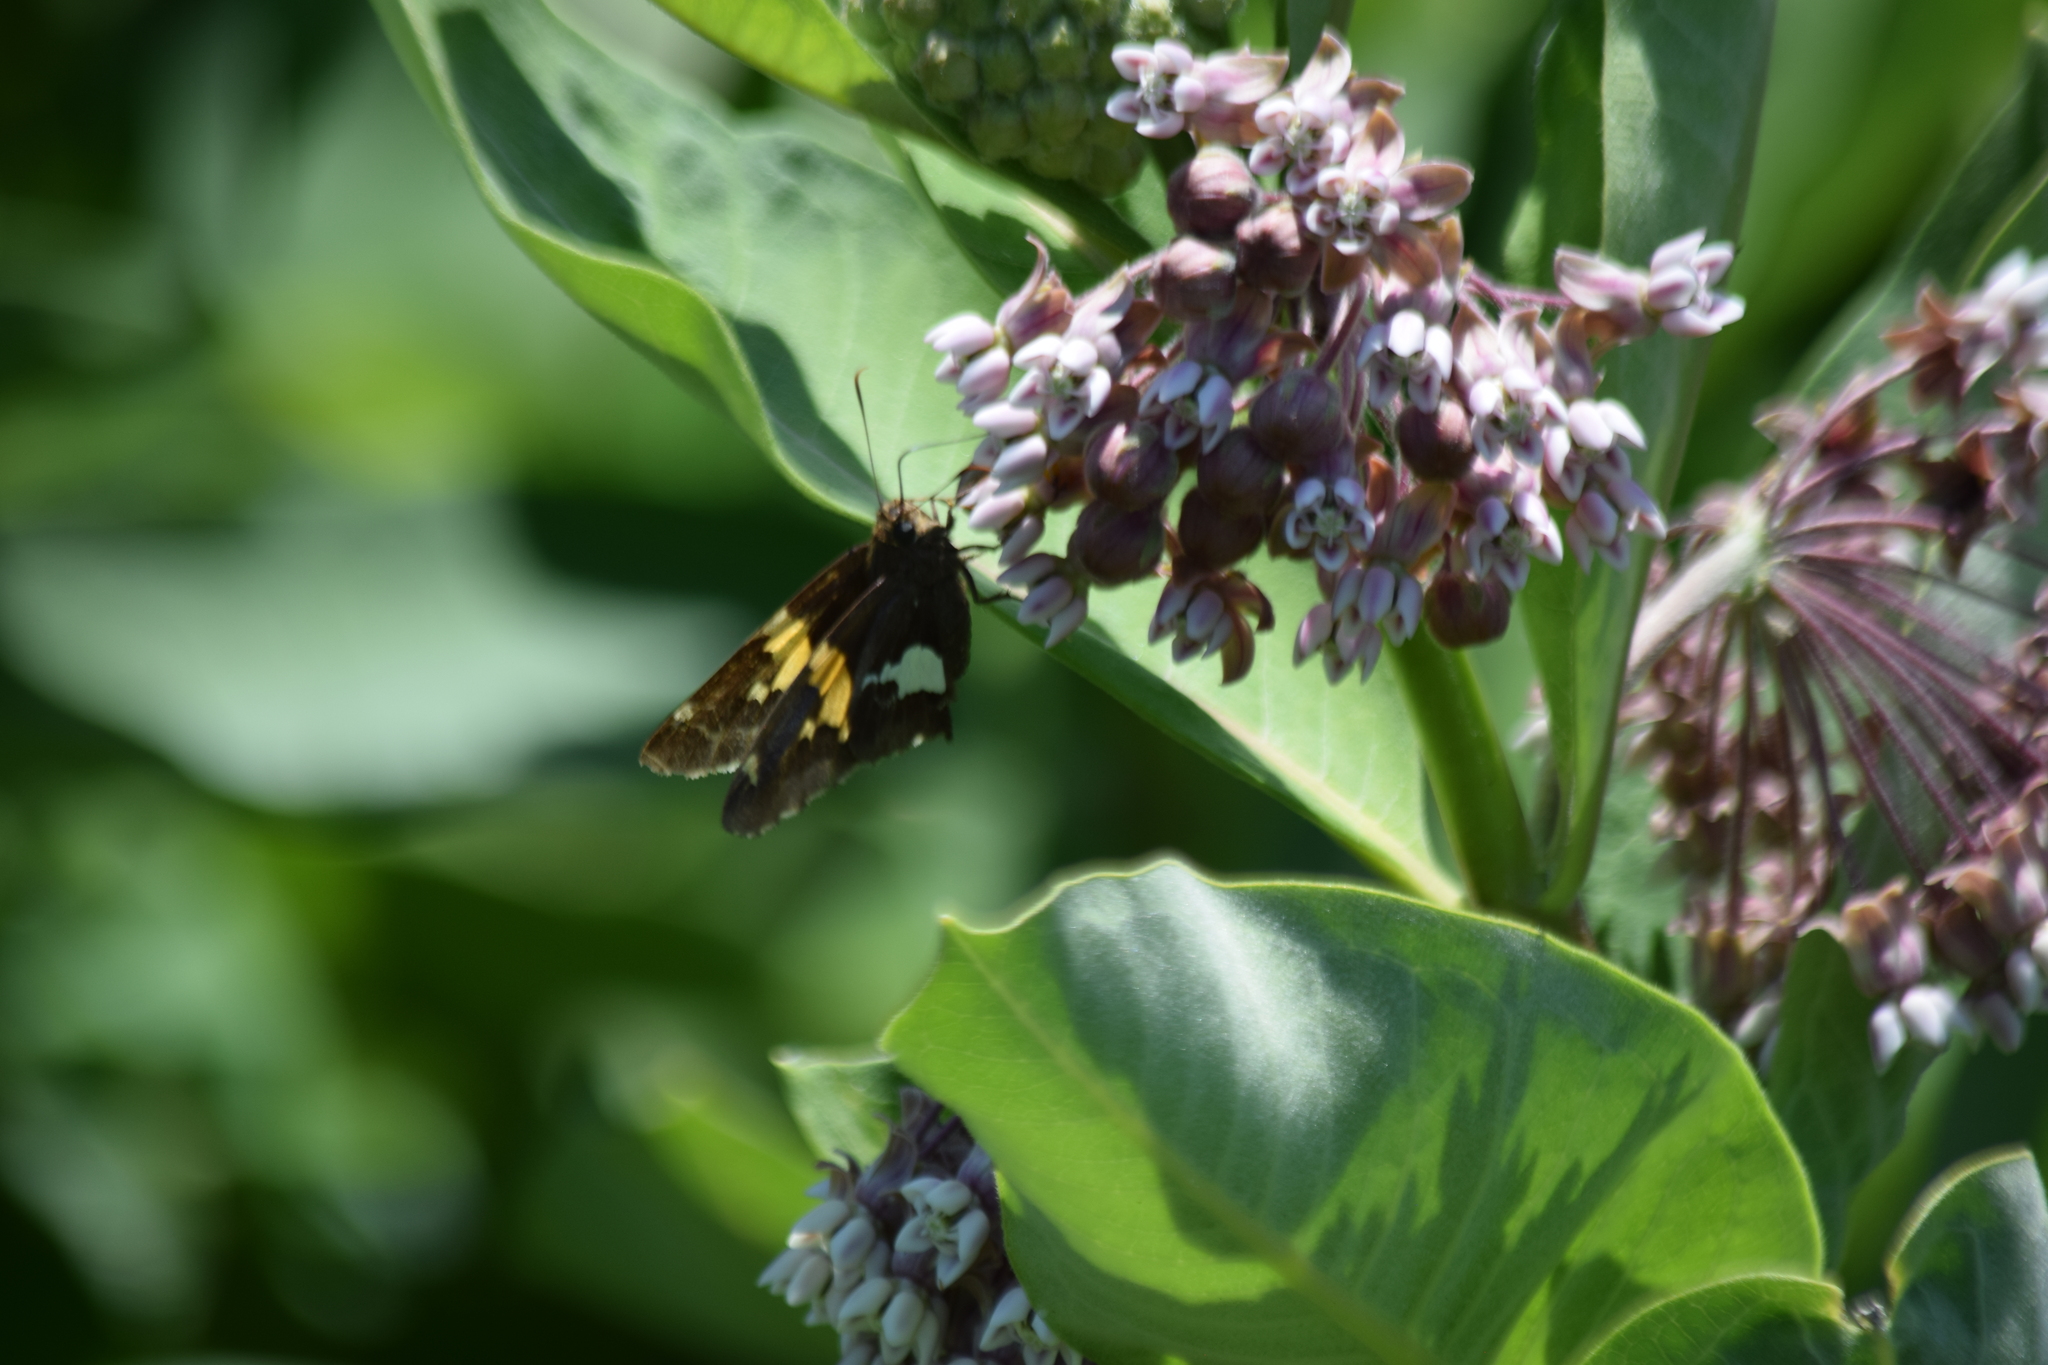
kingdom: Animalia
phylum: Arthropoda
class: Insecta
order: Lepidoptera
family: Hesperiidae
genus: Epargyreus
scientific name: Epargyreus clarus
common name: Silver-spotted skipper
